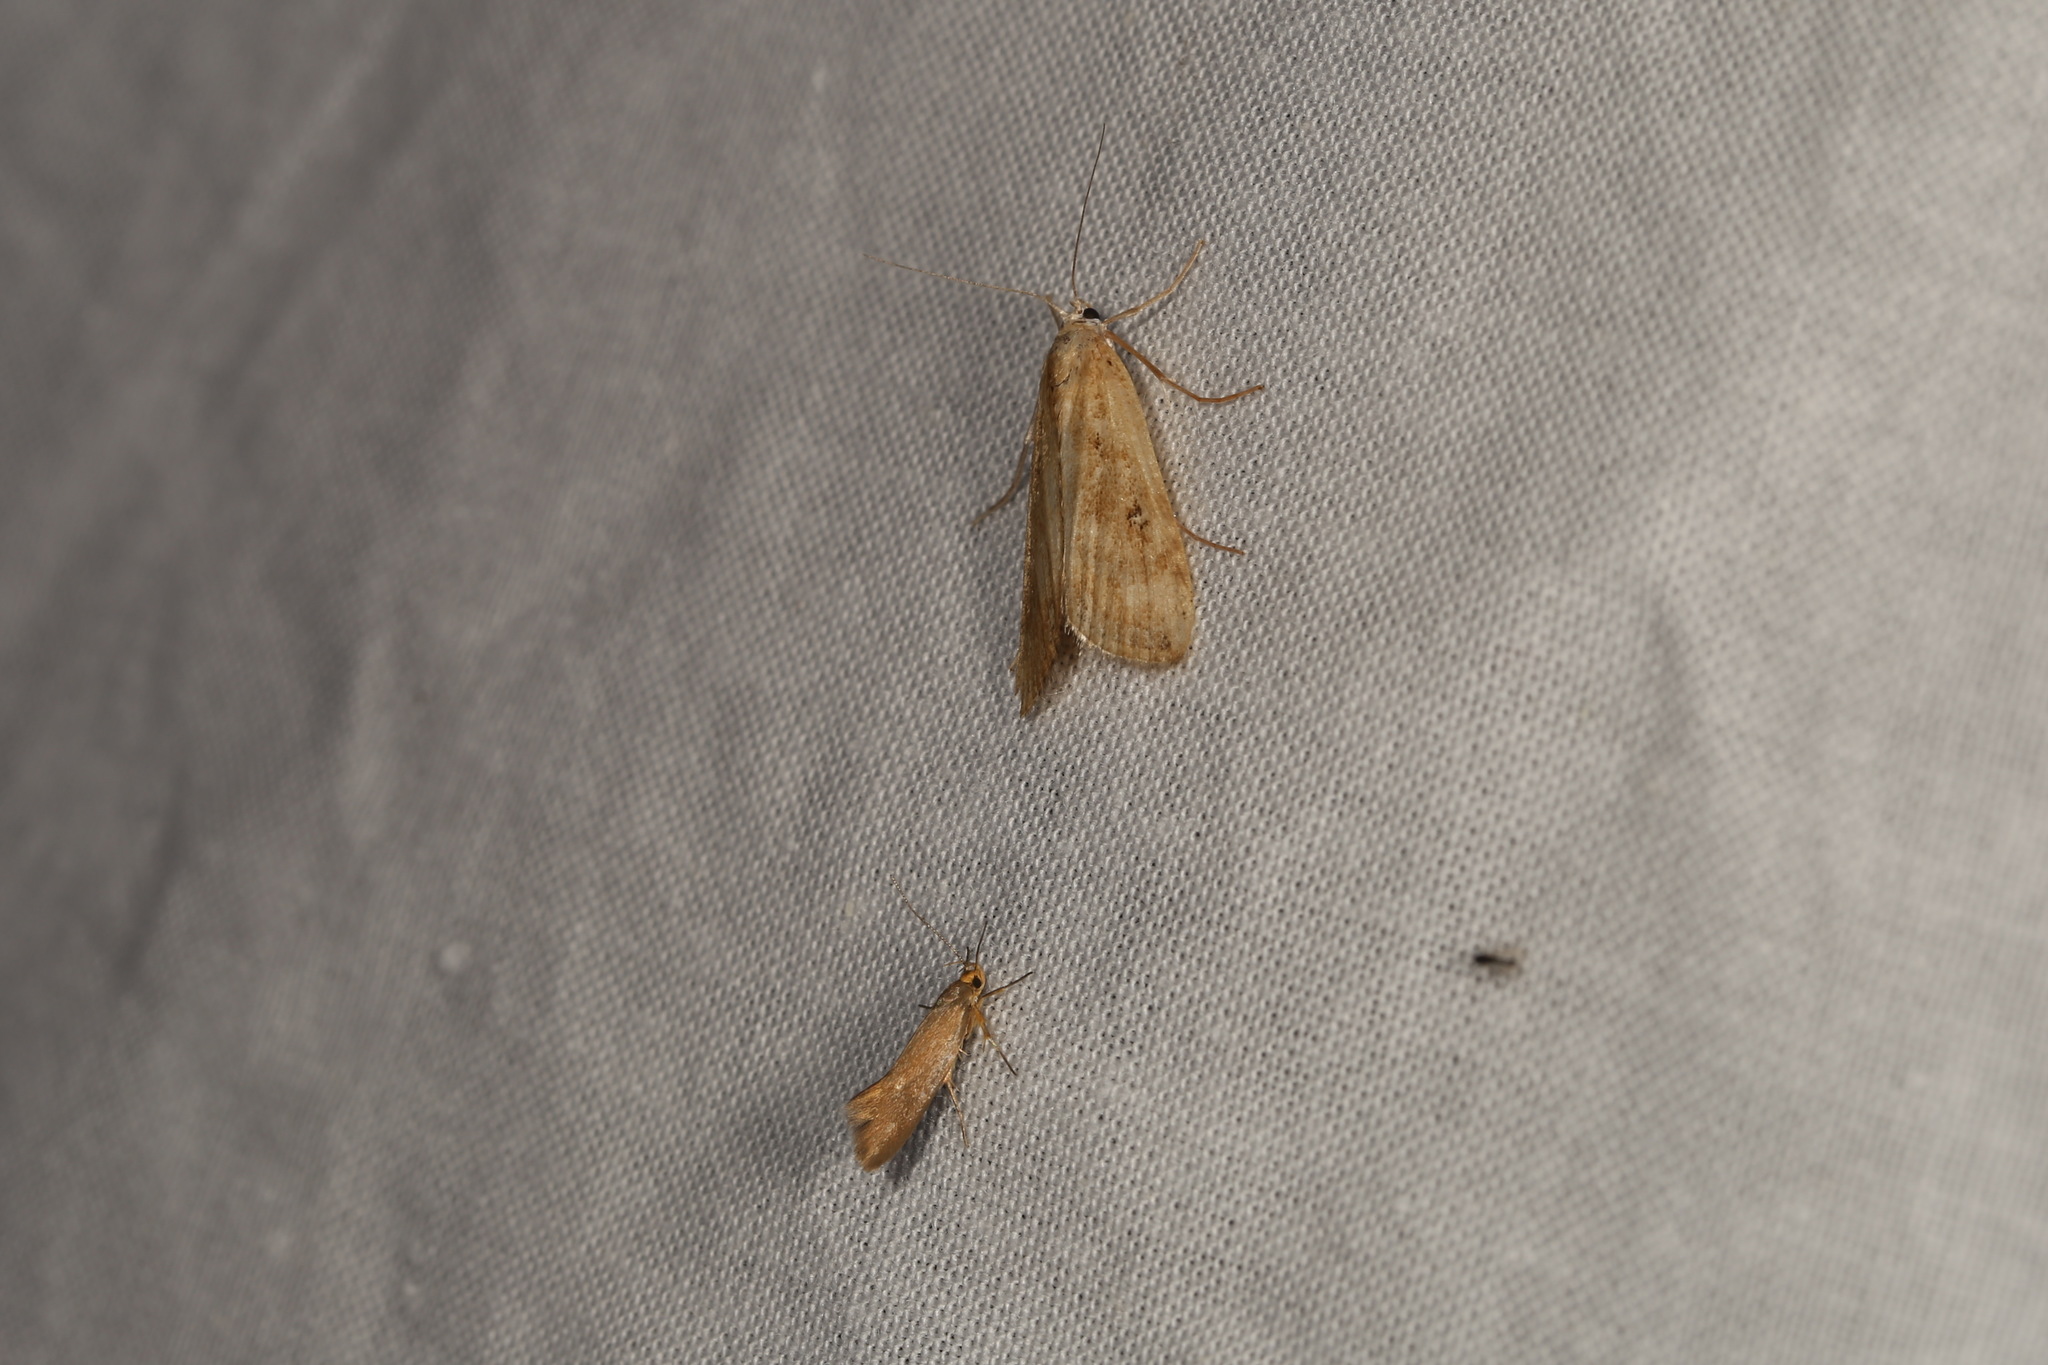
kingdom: Animalia
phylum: Arthropoda
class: Insecta
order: Lepidoptera
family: Crambidae
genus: Parapoynx
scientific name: Parapoynx stratiotata
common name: Ringed china-mark
